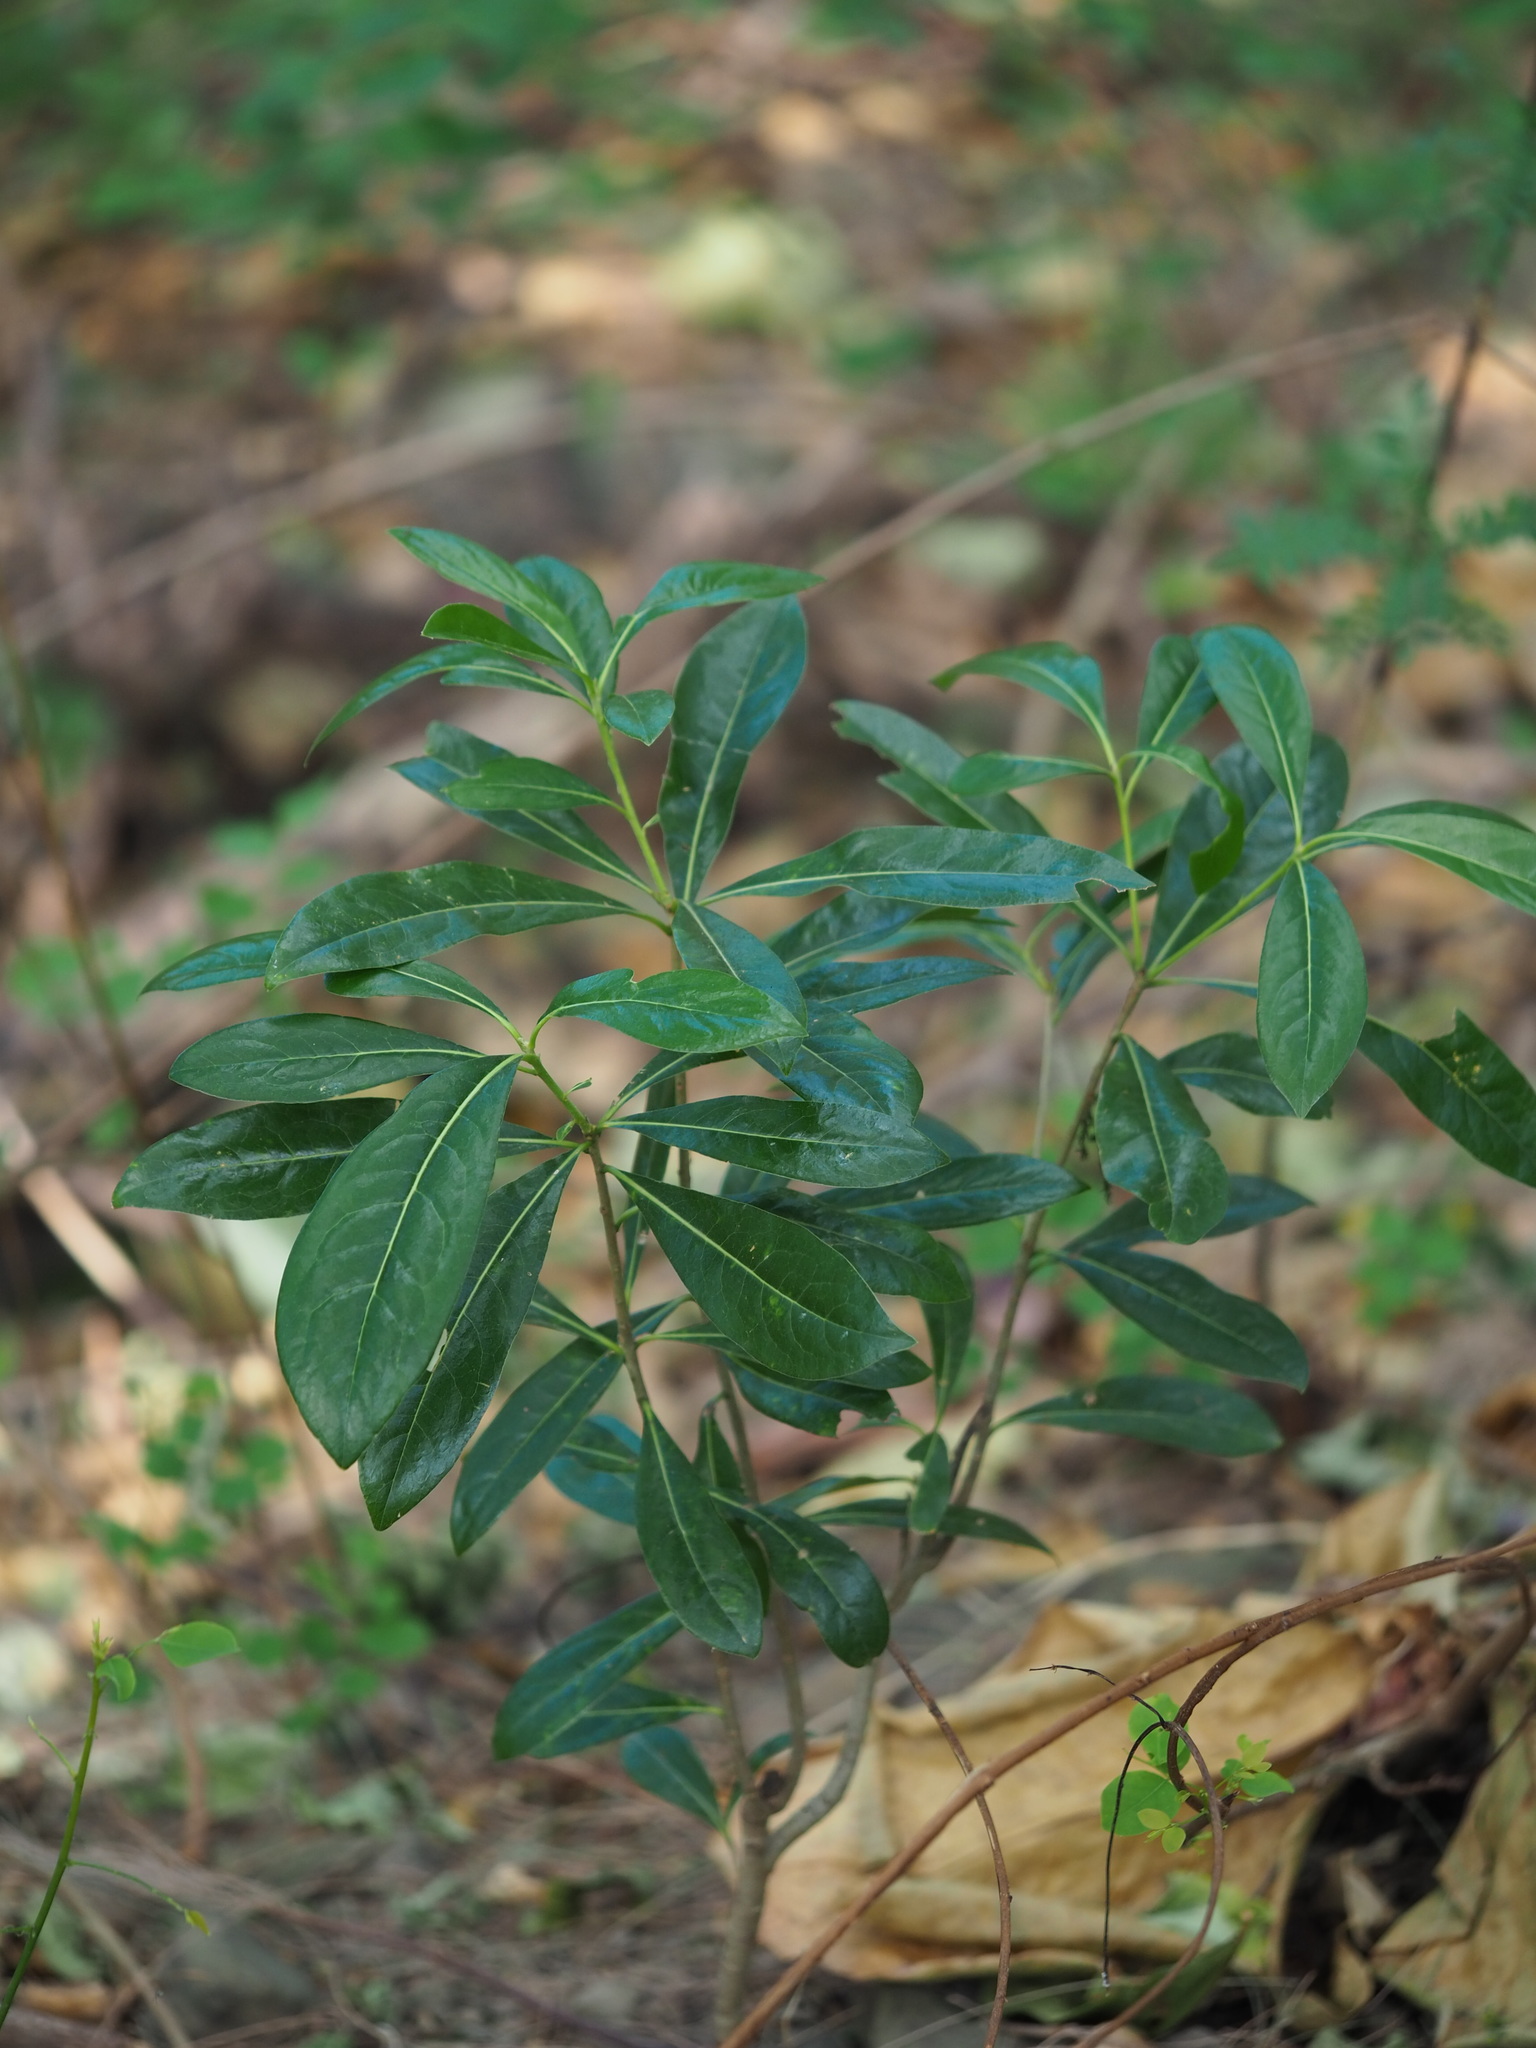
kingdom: Plantae
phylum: Tracheophyta
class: Magnoliopsida
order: Apiales
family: Pittosporaceae
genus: Pittosporum
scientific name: Pittosporum pentandrum
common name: Taiwanese cheesewood
